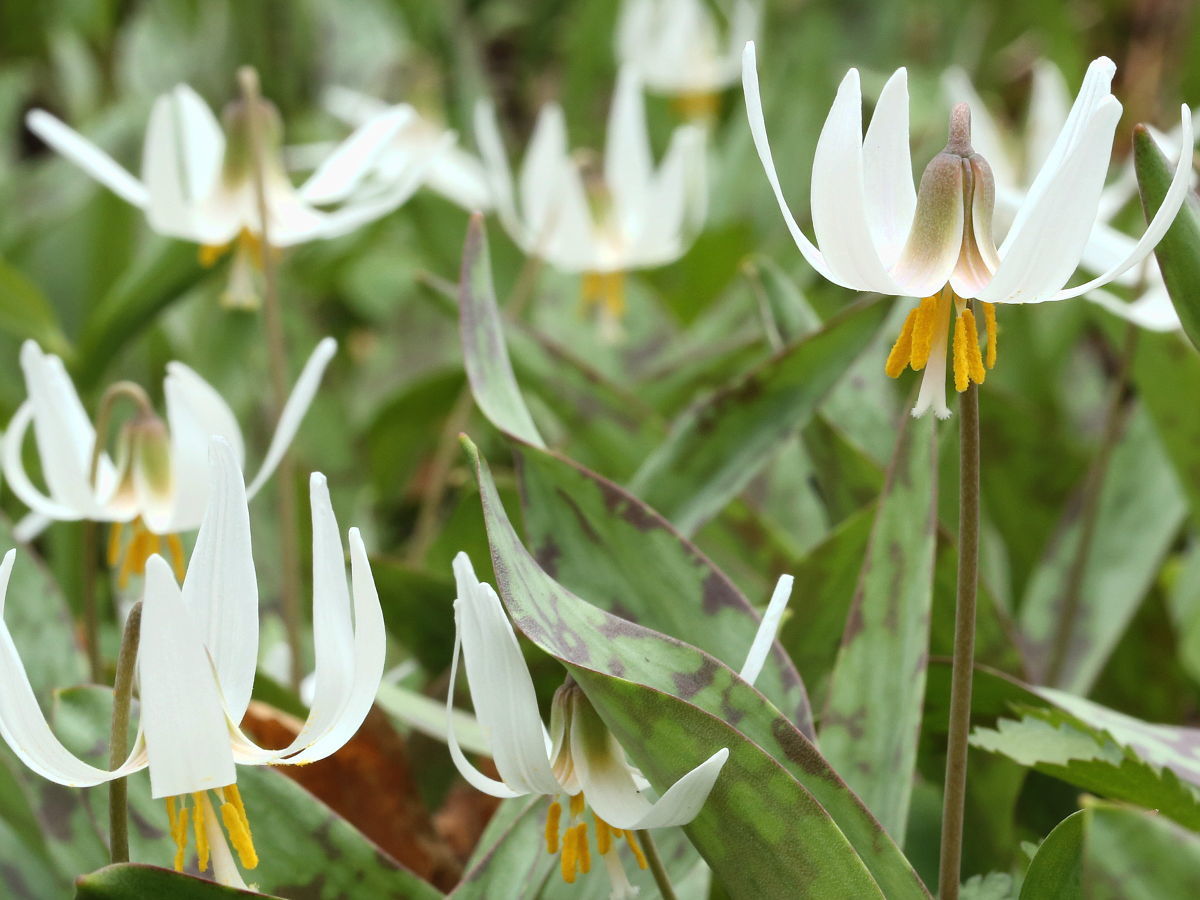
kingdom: Plantae
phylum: Tracheophyta
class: Liliopsida
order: Liliales
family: Liliaceae
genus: Erythronium
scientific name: Erythronium albidum
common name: White trout-lily
